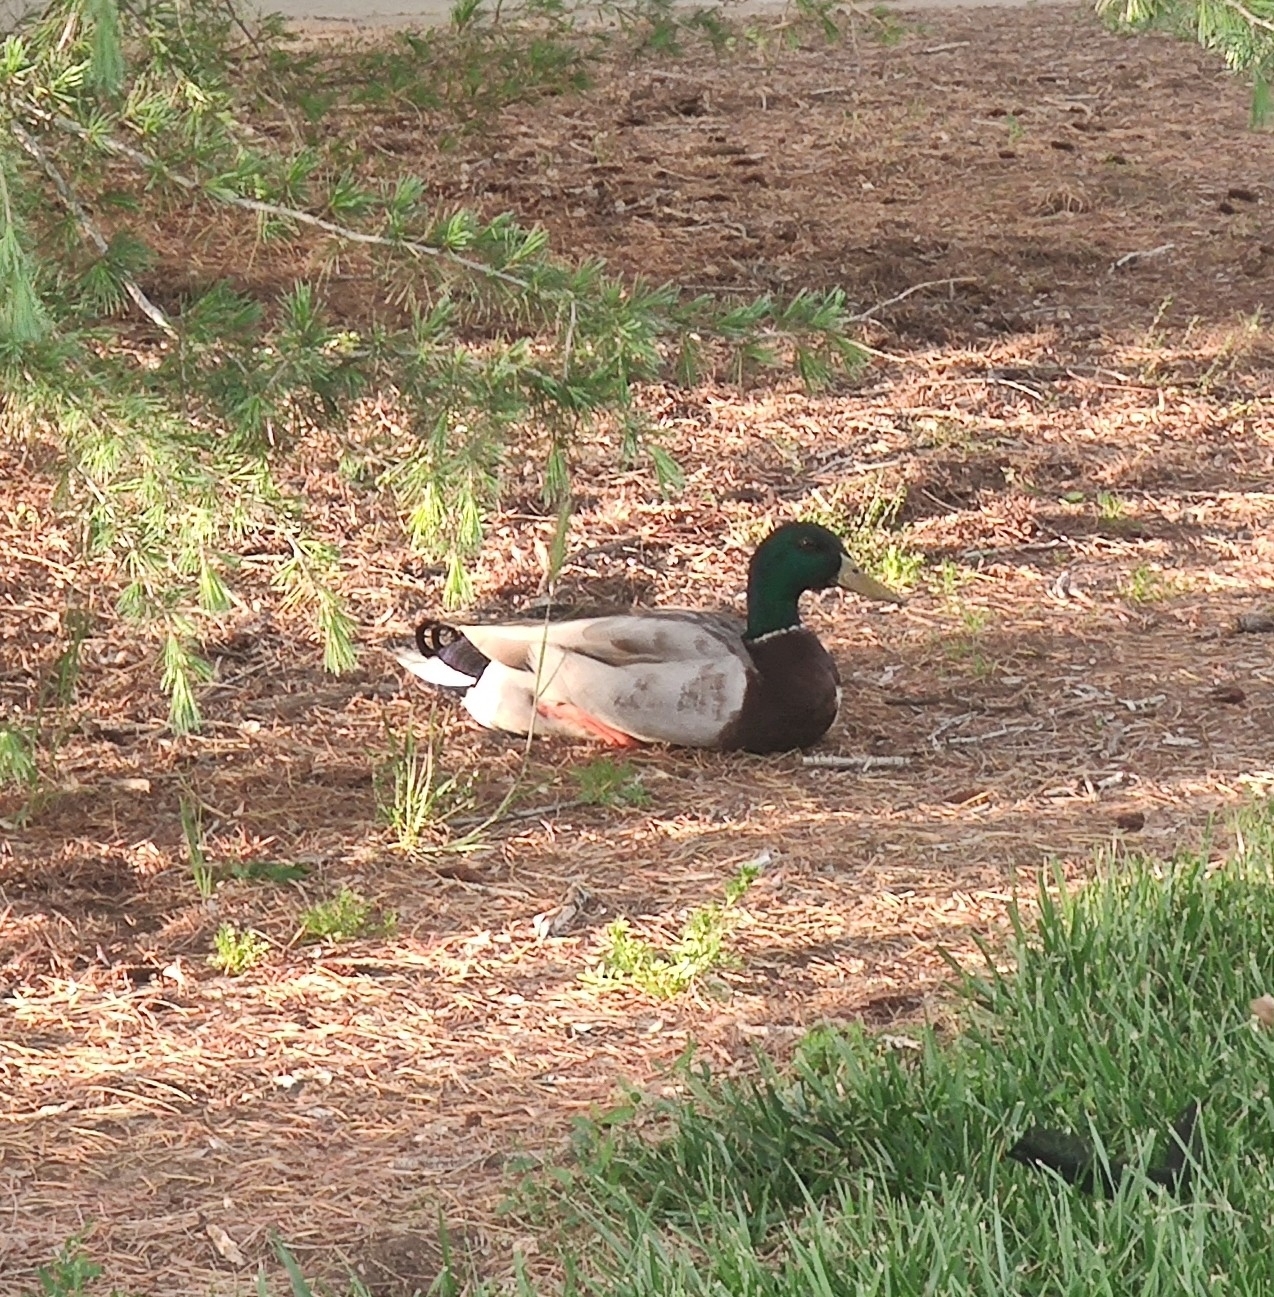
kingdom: Animalia
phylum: Chordata
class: Aves
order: Anseriformes
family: Anatidae
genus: Anas
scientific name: Anas platyrhynchos
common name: Mallard
